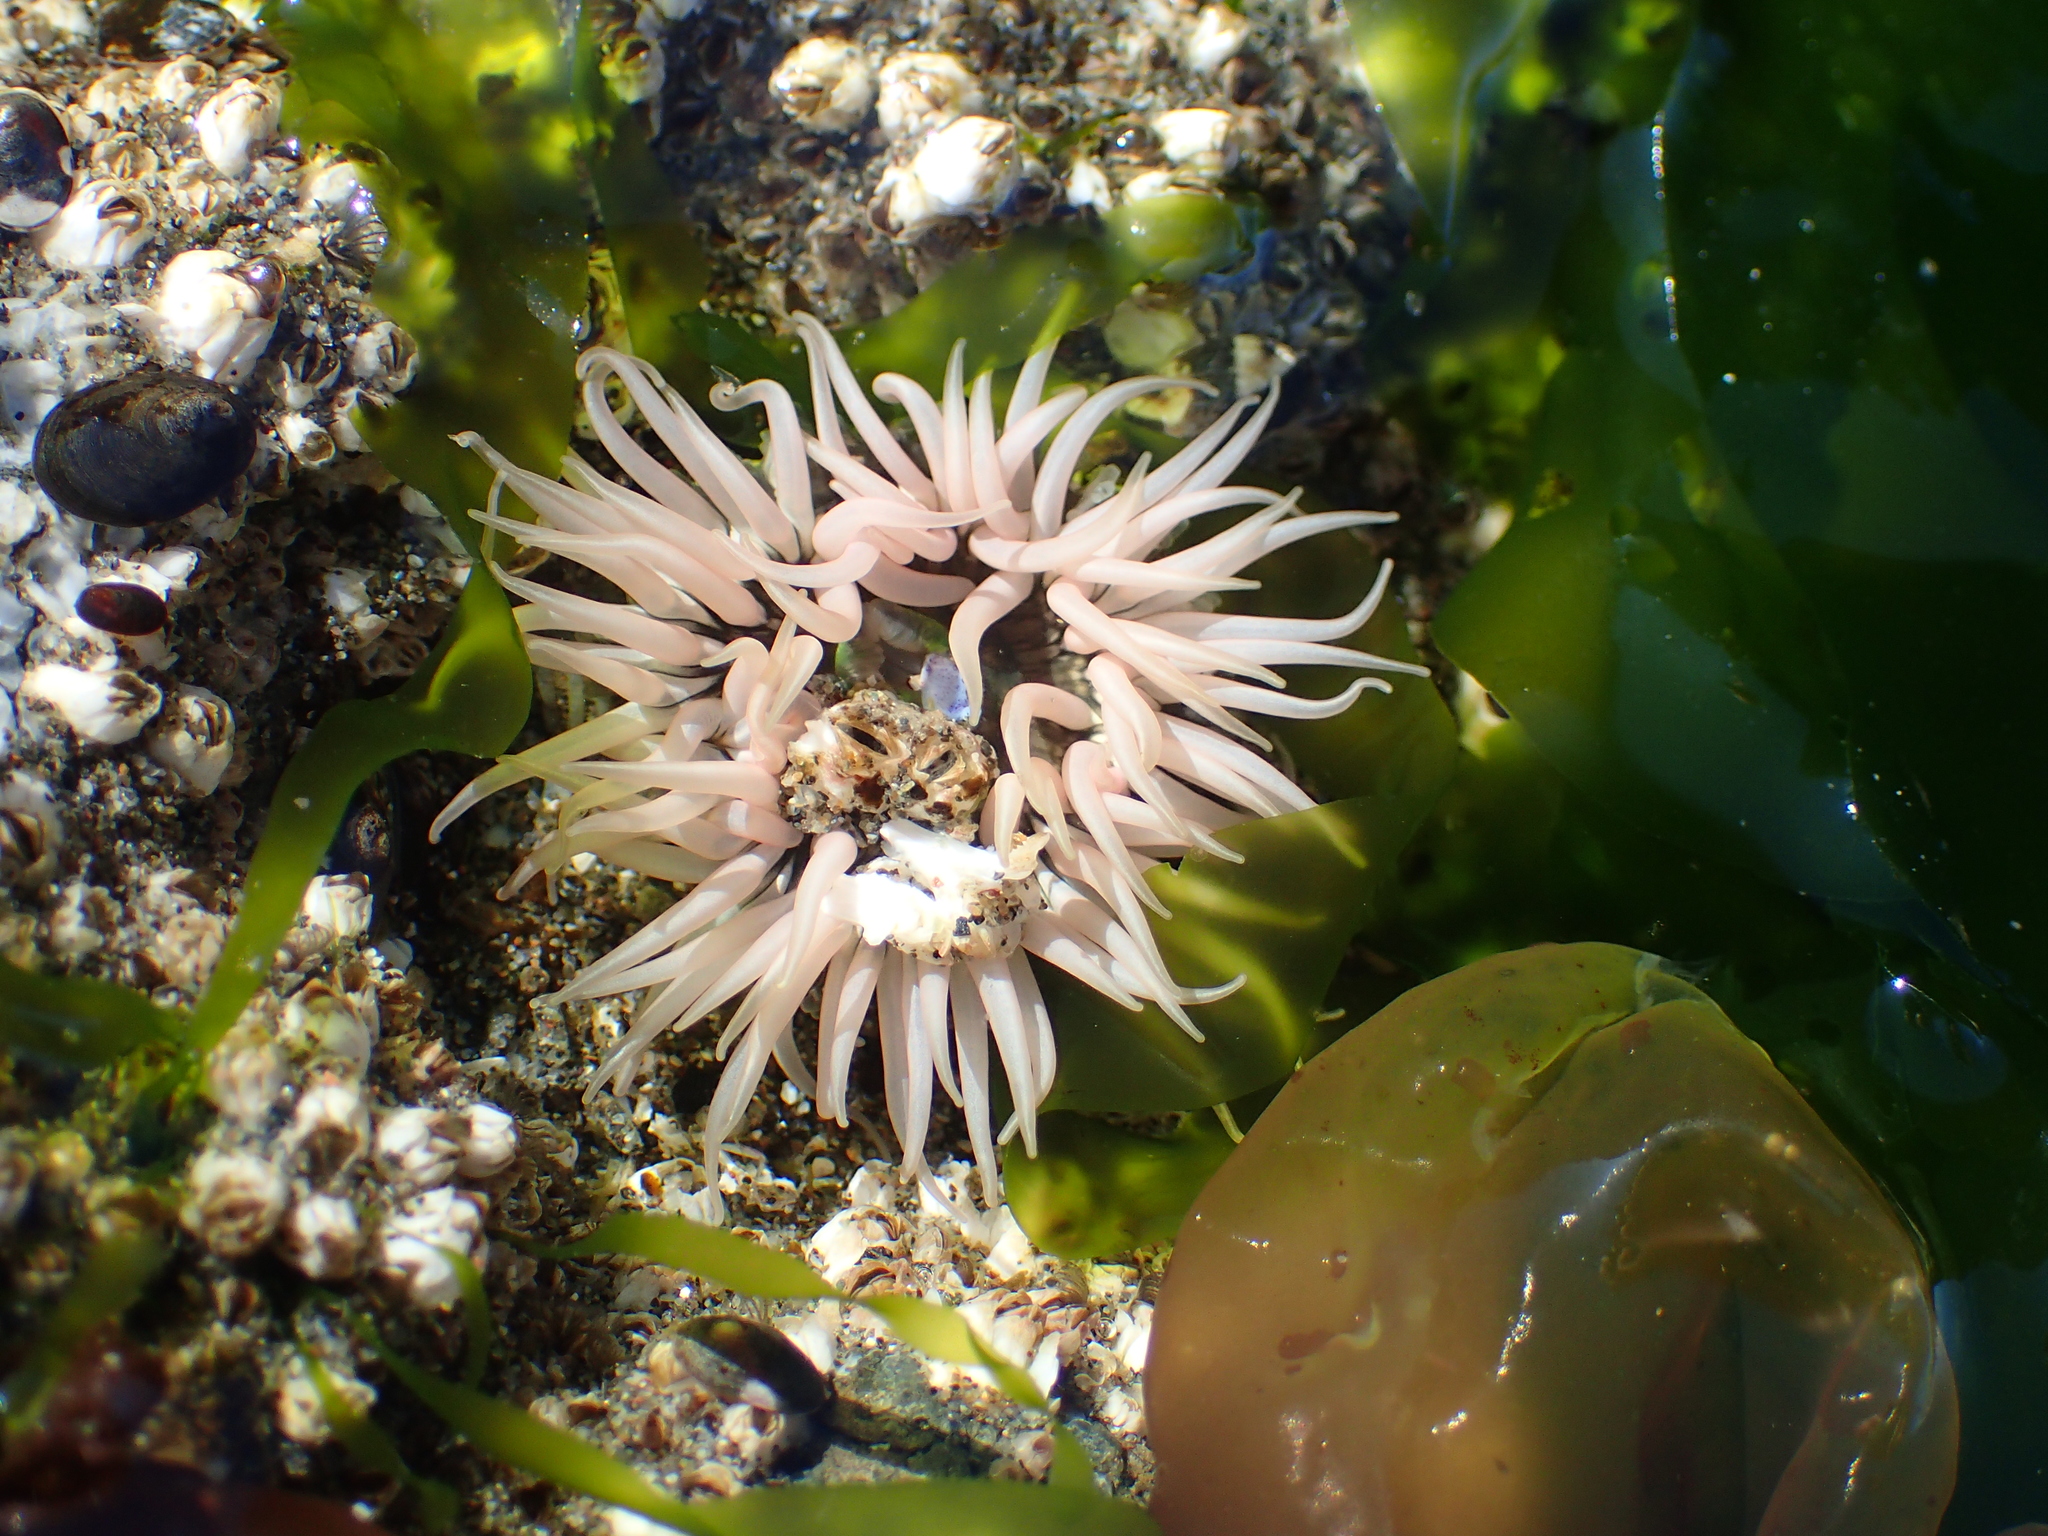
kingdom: Animalia
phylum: Cnidaria
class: Anthozoa
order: Actiniaria
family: Actiniidae
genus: Anthopleura
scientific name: Anthopleura artemisia
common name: Buried sea anemone
